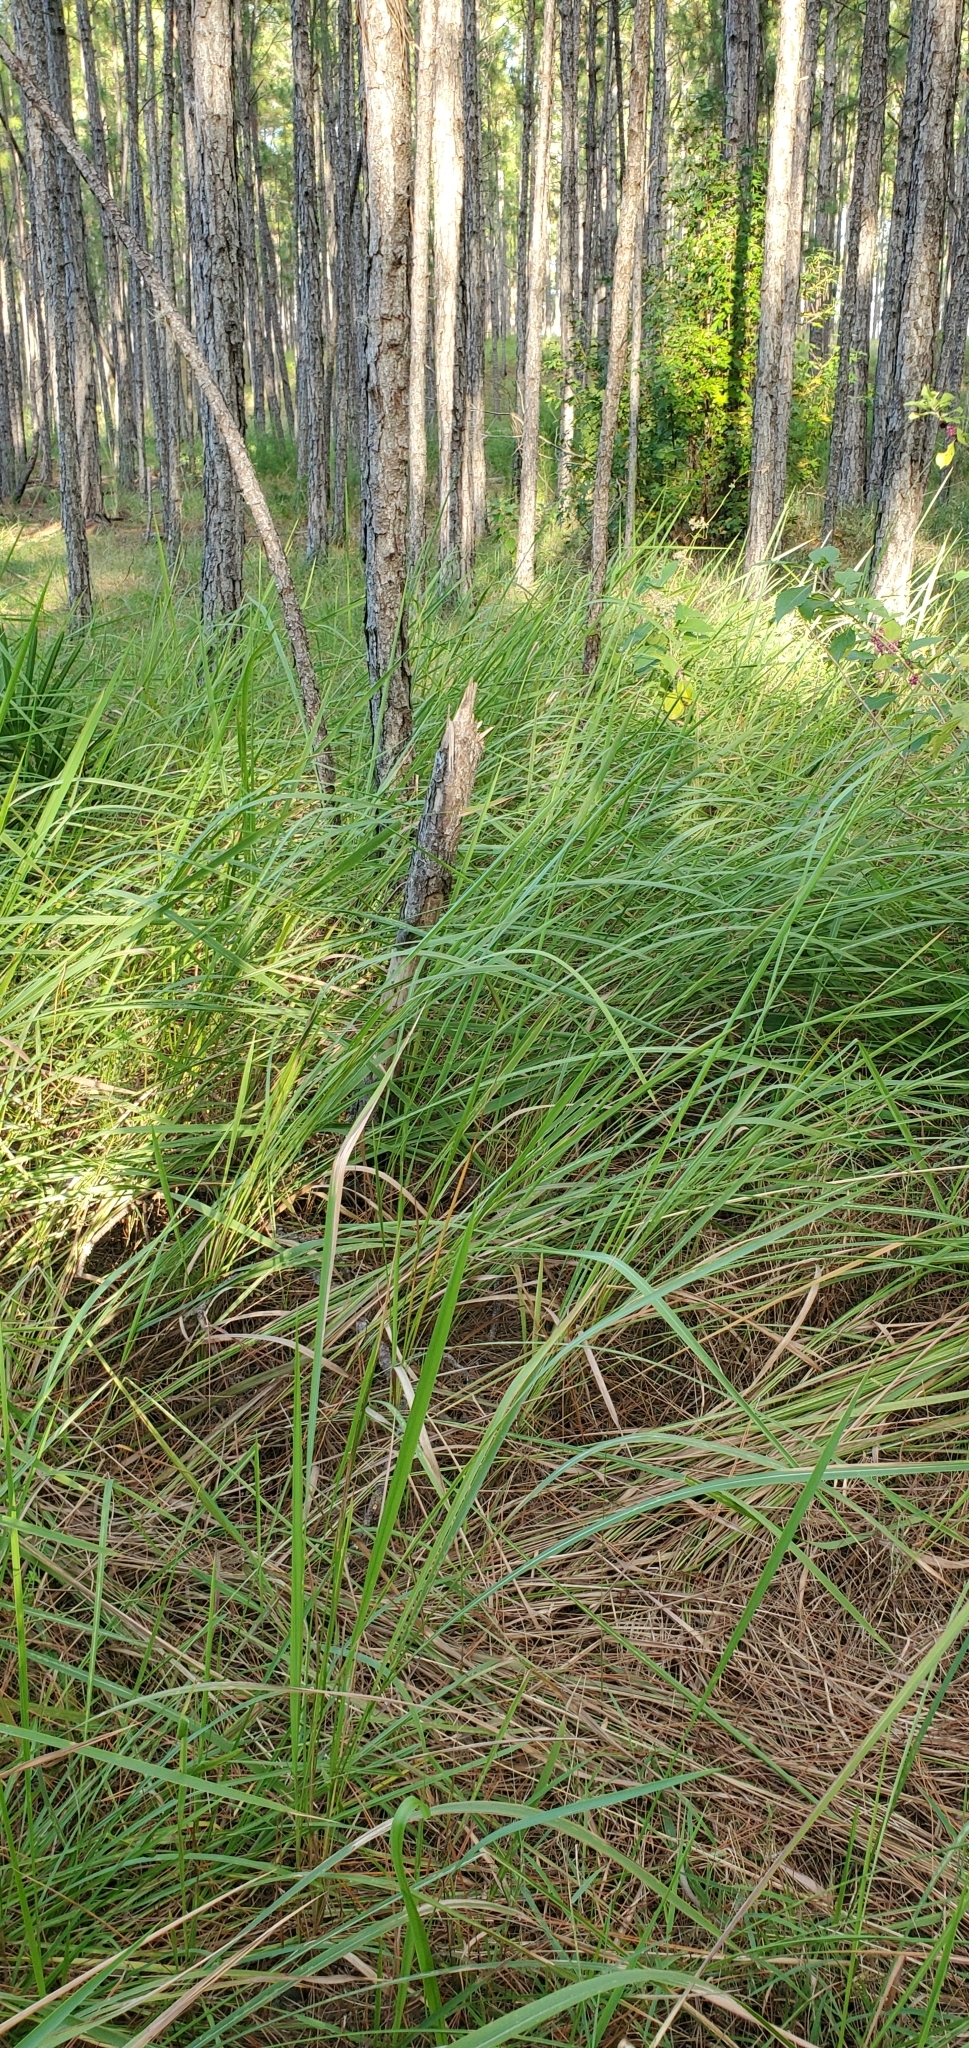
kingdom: Plantae
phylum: Tracheophyta
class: Liliopsida
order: Poales
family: Poaceae
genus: Imperata
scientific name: Imperata cylindrica
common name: Cogongrass
